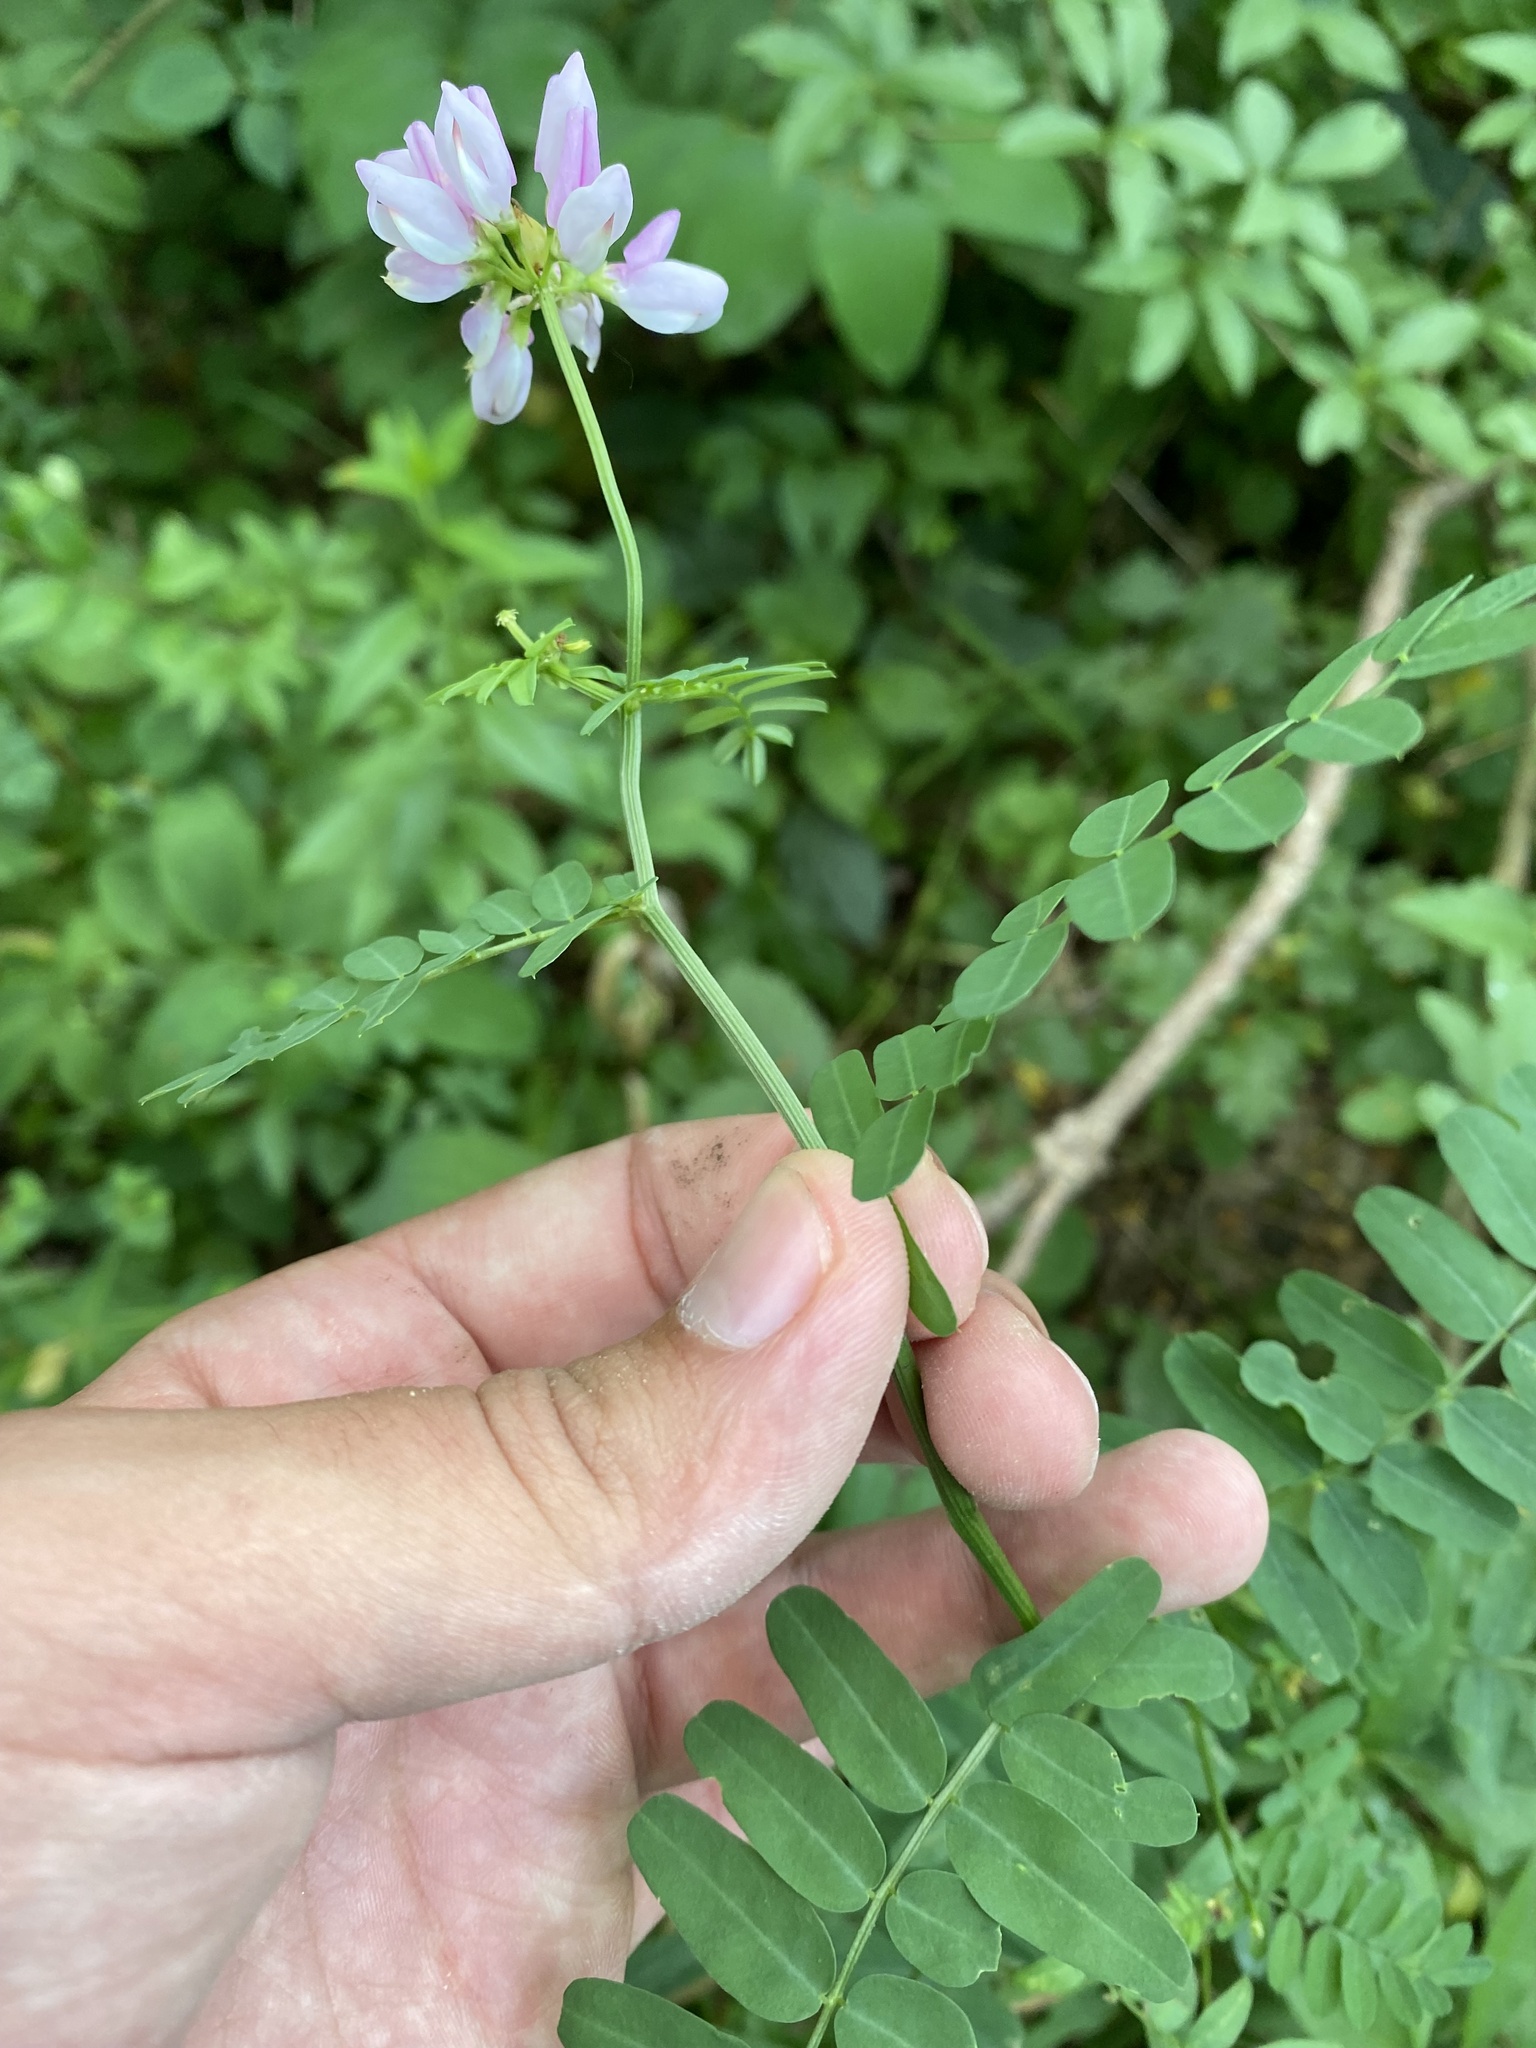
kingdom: Plantae
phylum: Tracheophyta
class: Magnoliopsida
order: Fabales
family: Fabaceae
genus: Coronilla
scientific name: Coronilla varia
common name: Crownvetch
